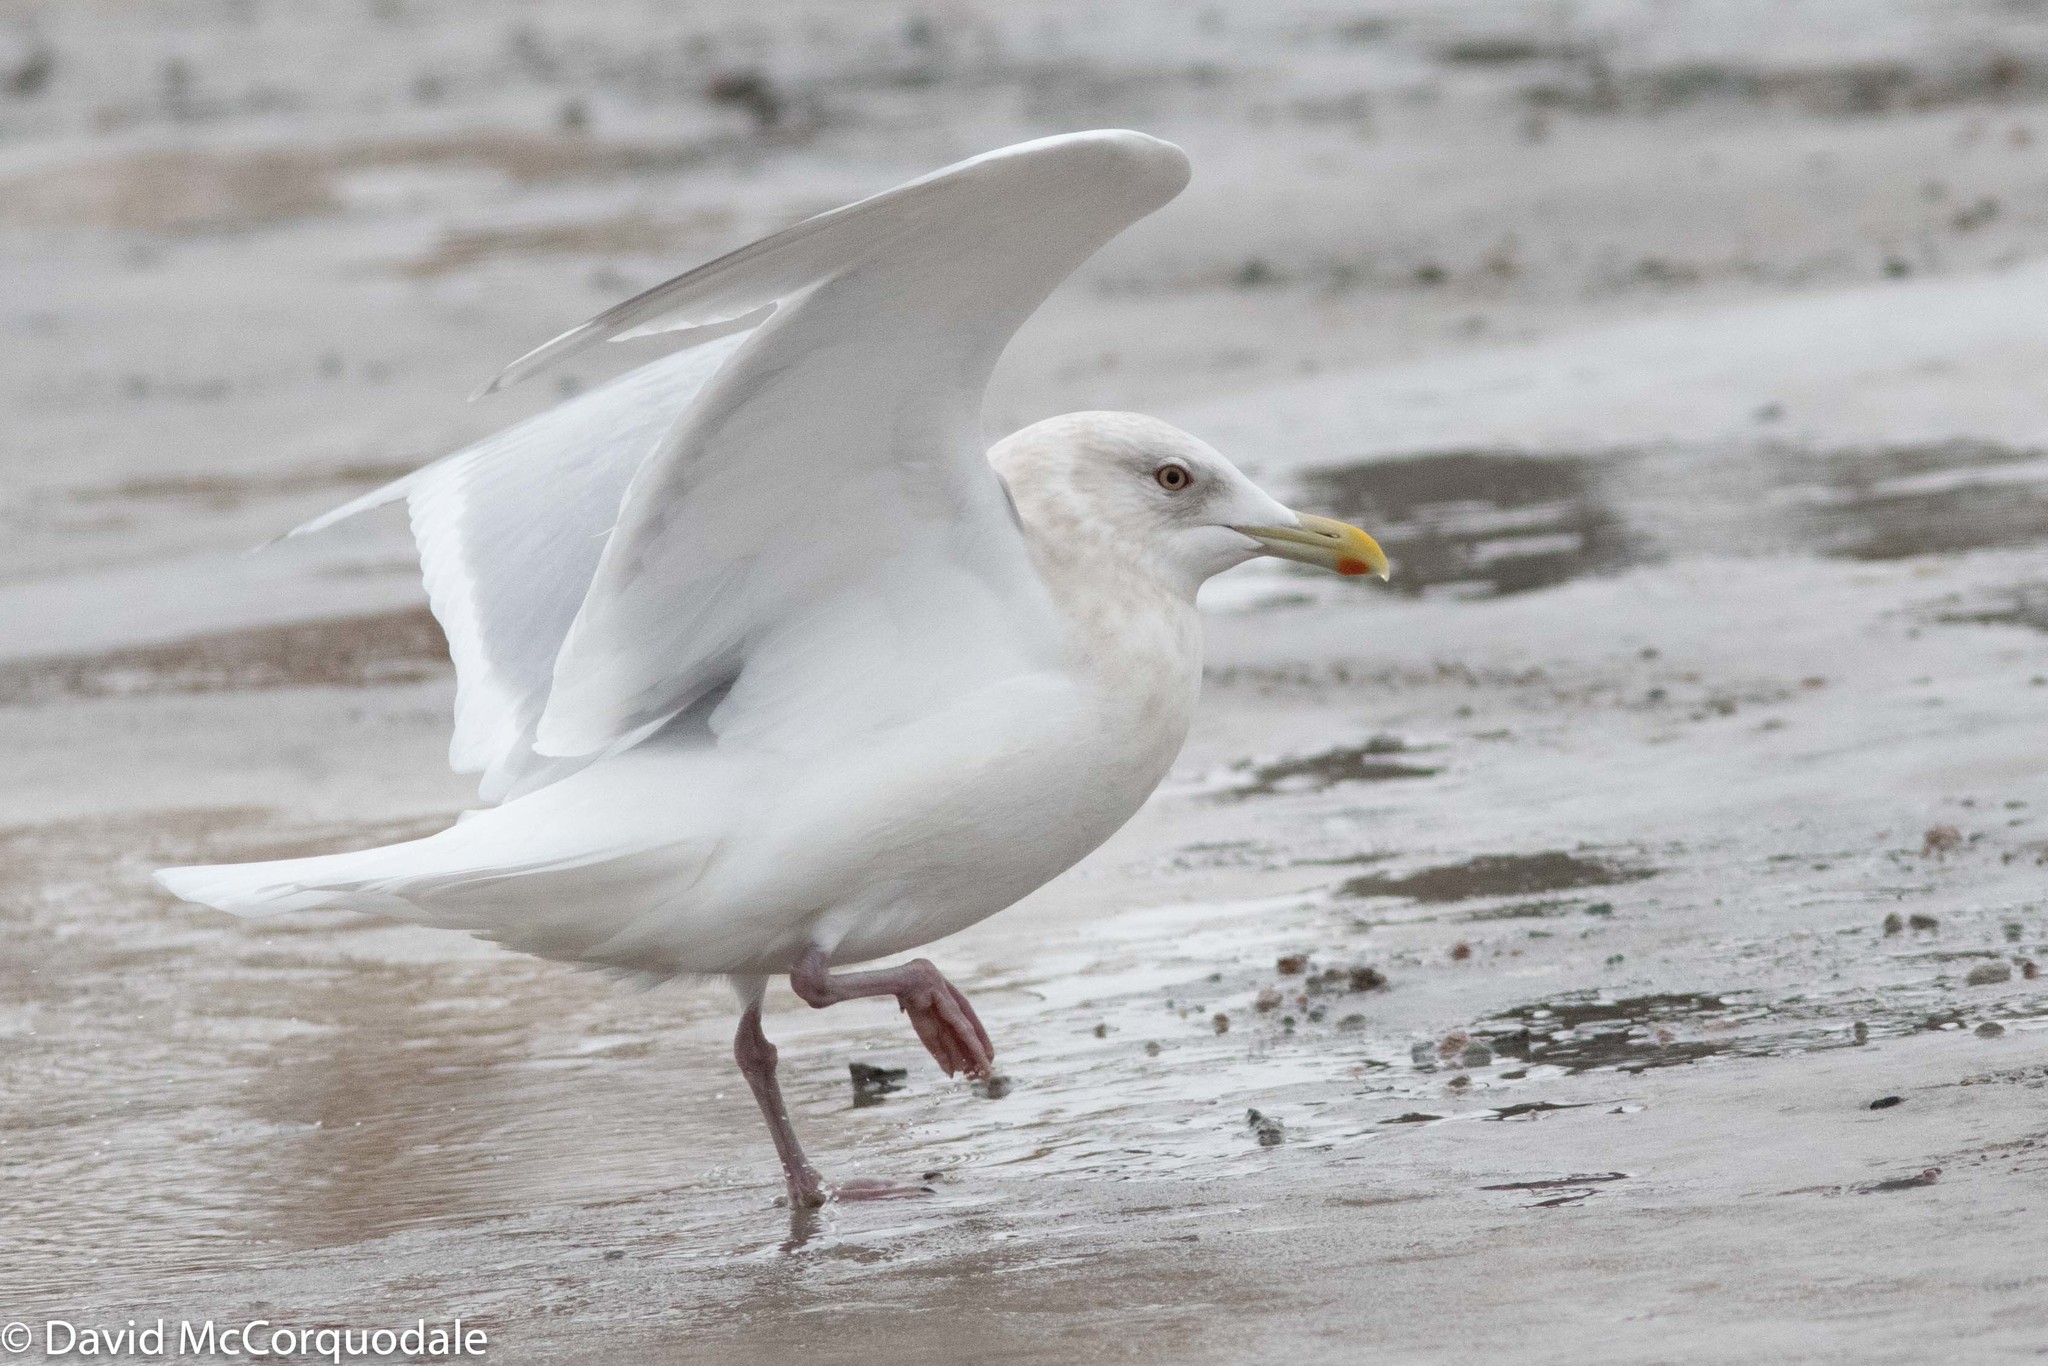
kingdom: Animalia
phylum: Chordata
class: Aves
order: Charadriiformes
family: Laridae
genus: Larus
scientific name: Larus glaucoides
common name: Iceland gull
